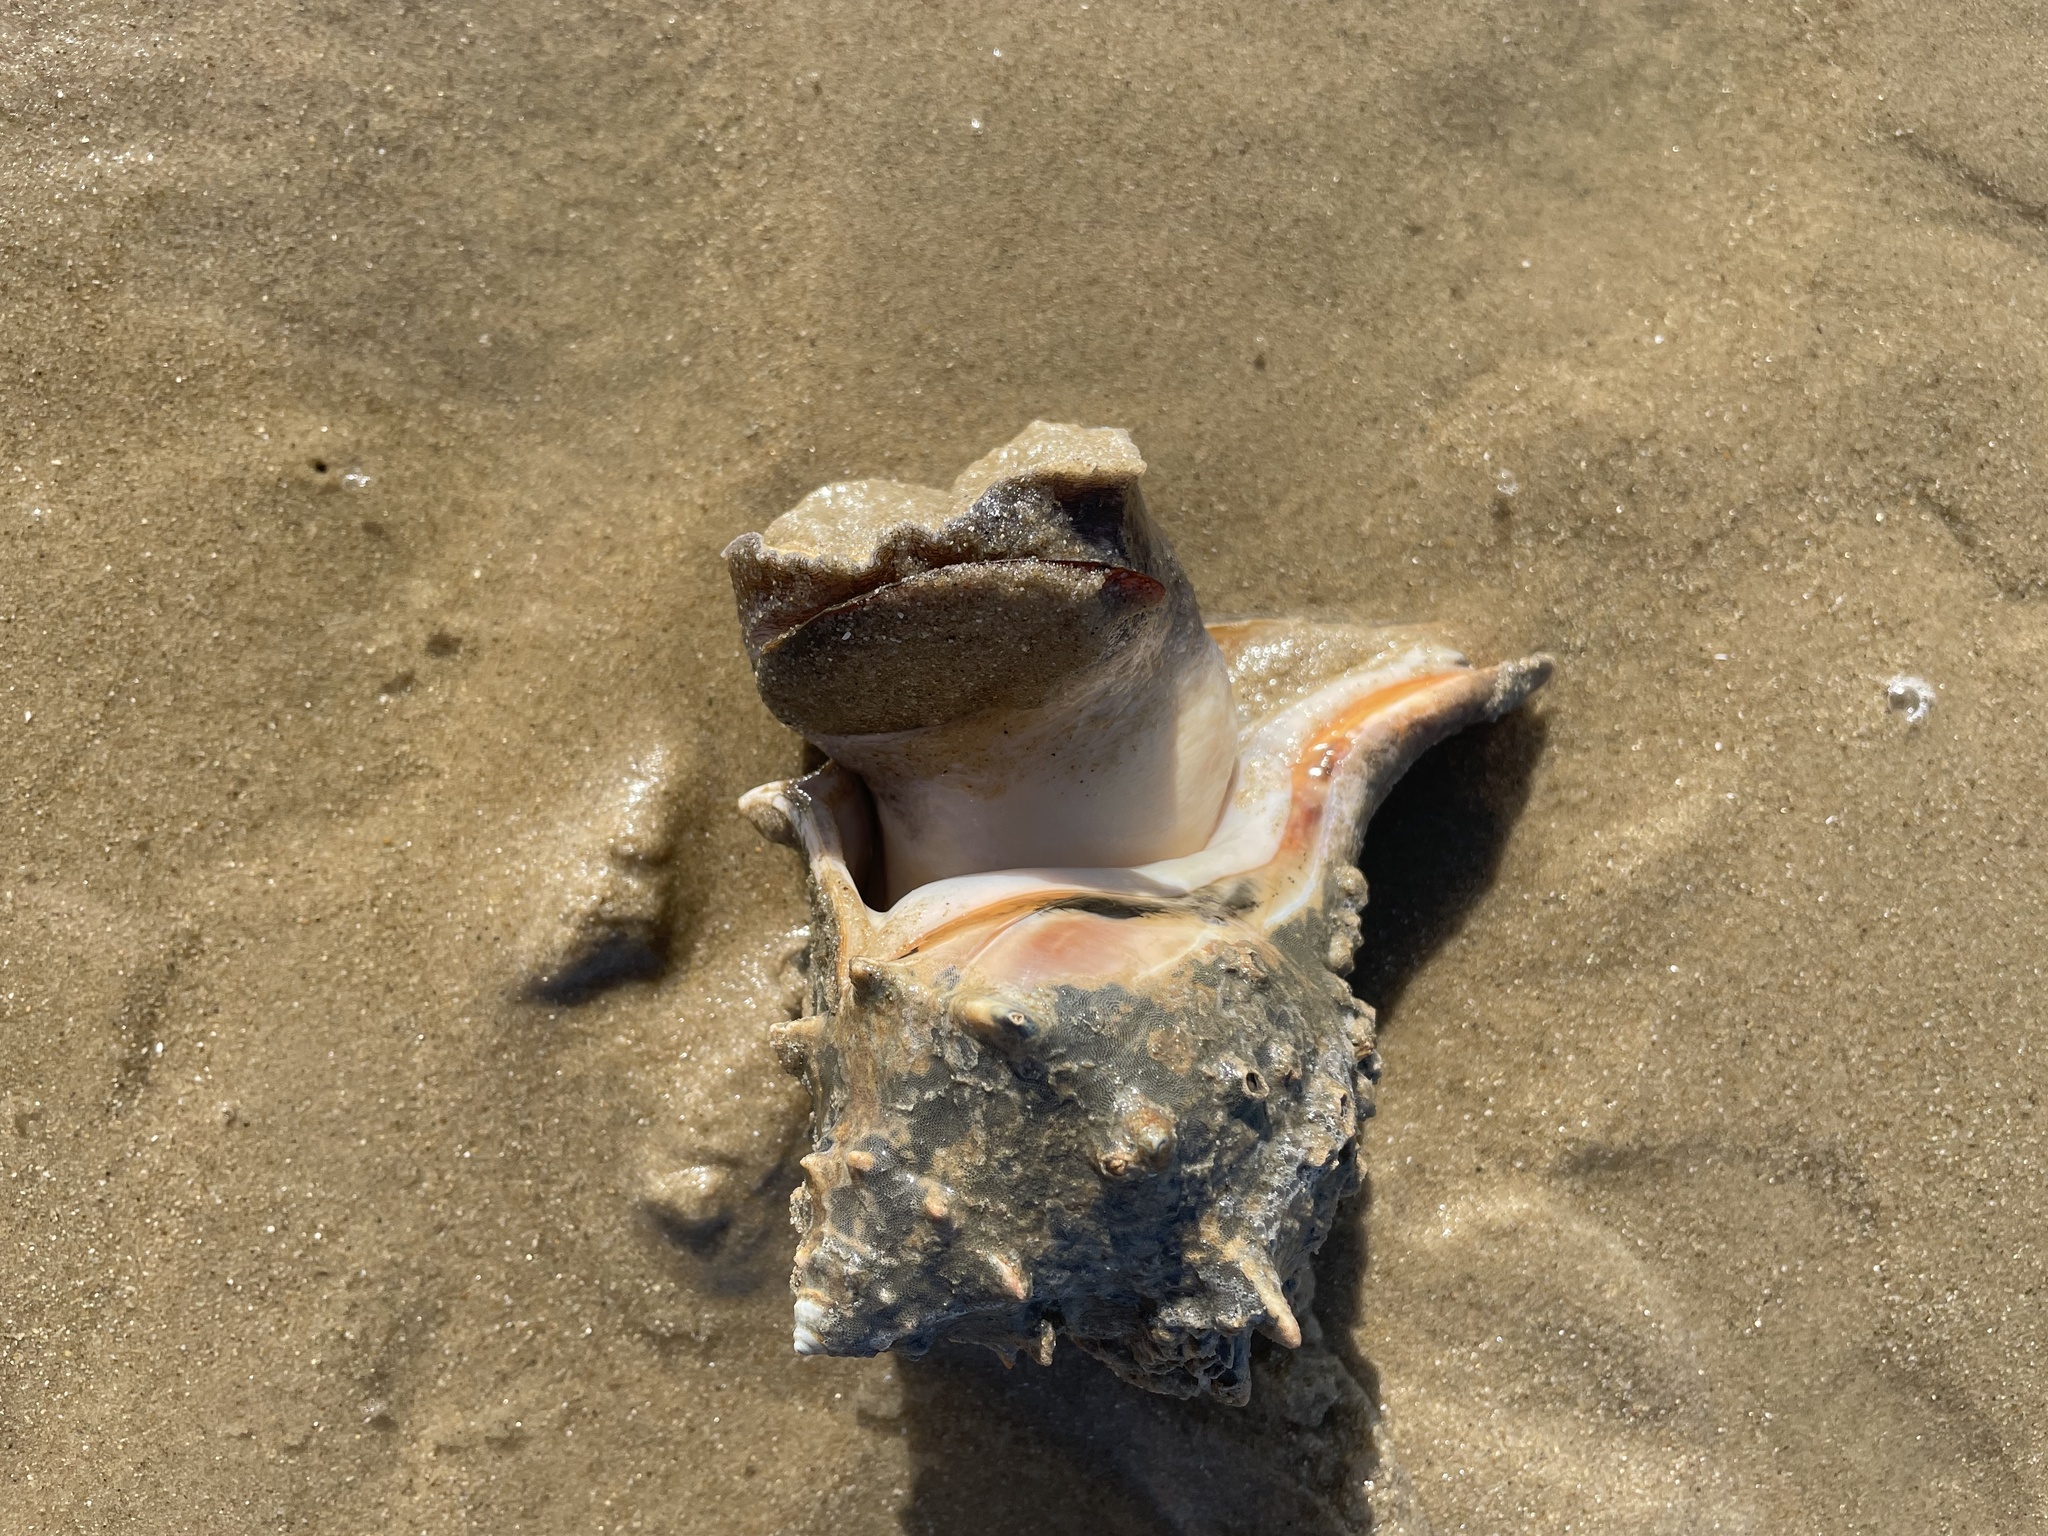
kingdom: Animalia
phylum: Mollusca
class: Gastropoda
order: Neogastropoda
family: Busyconidae
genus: Busycon
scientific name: Busycon carica
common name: Knobbed whelk
